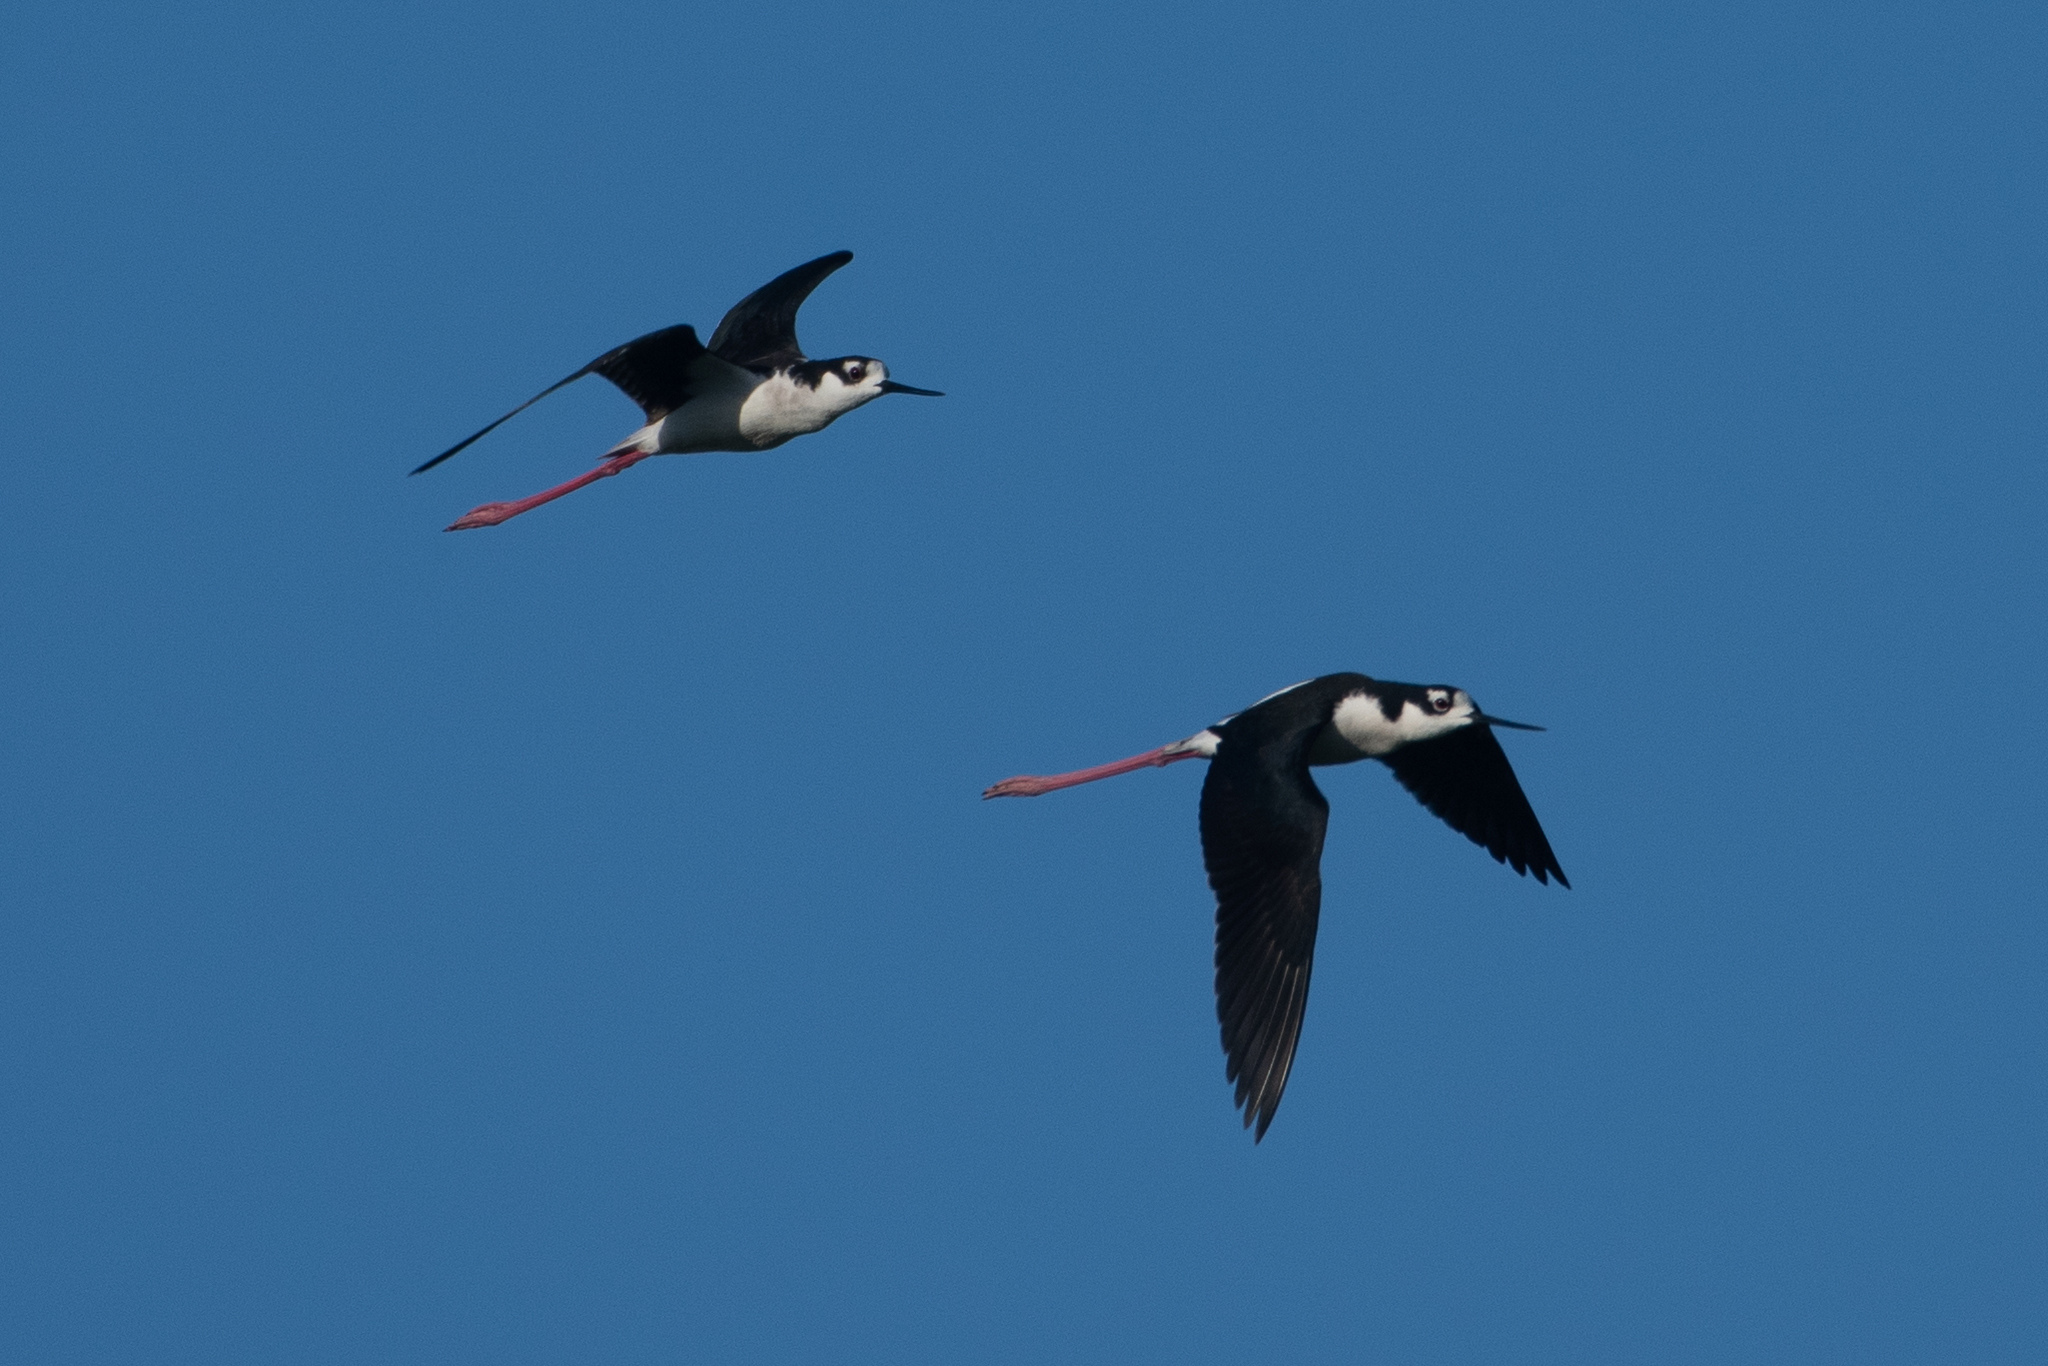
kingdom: Animalia
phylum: Chordata
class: Aves
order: Charadriiformes
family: Recurvirostridae
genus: Himantopus
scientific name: Himantopus mexicanus
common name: Black-necked stilt
